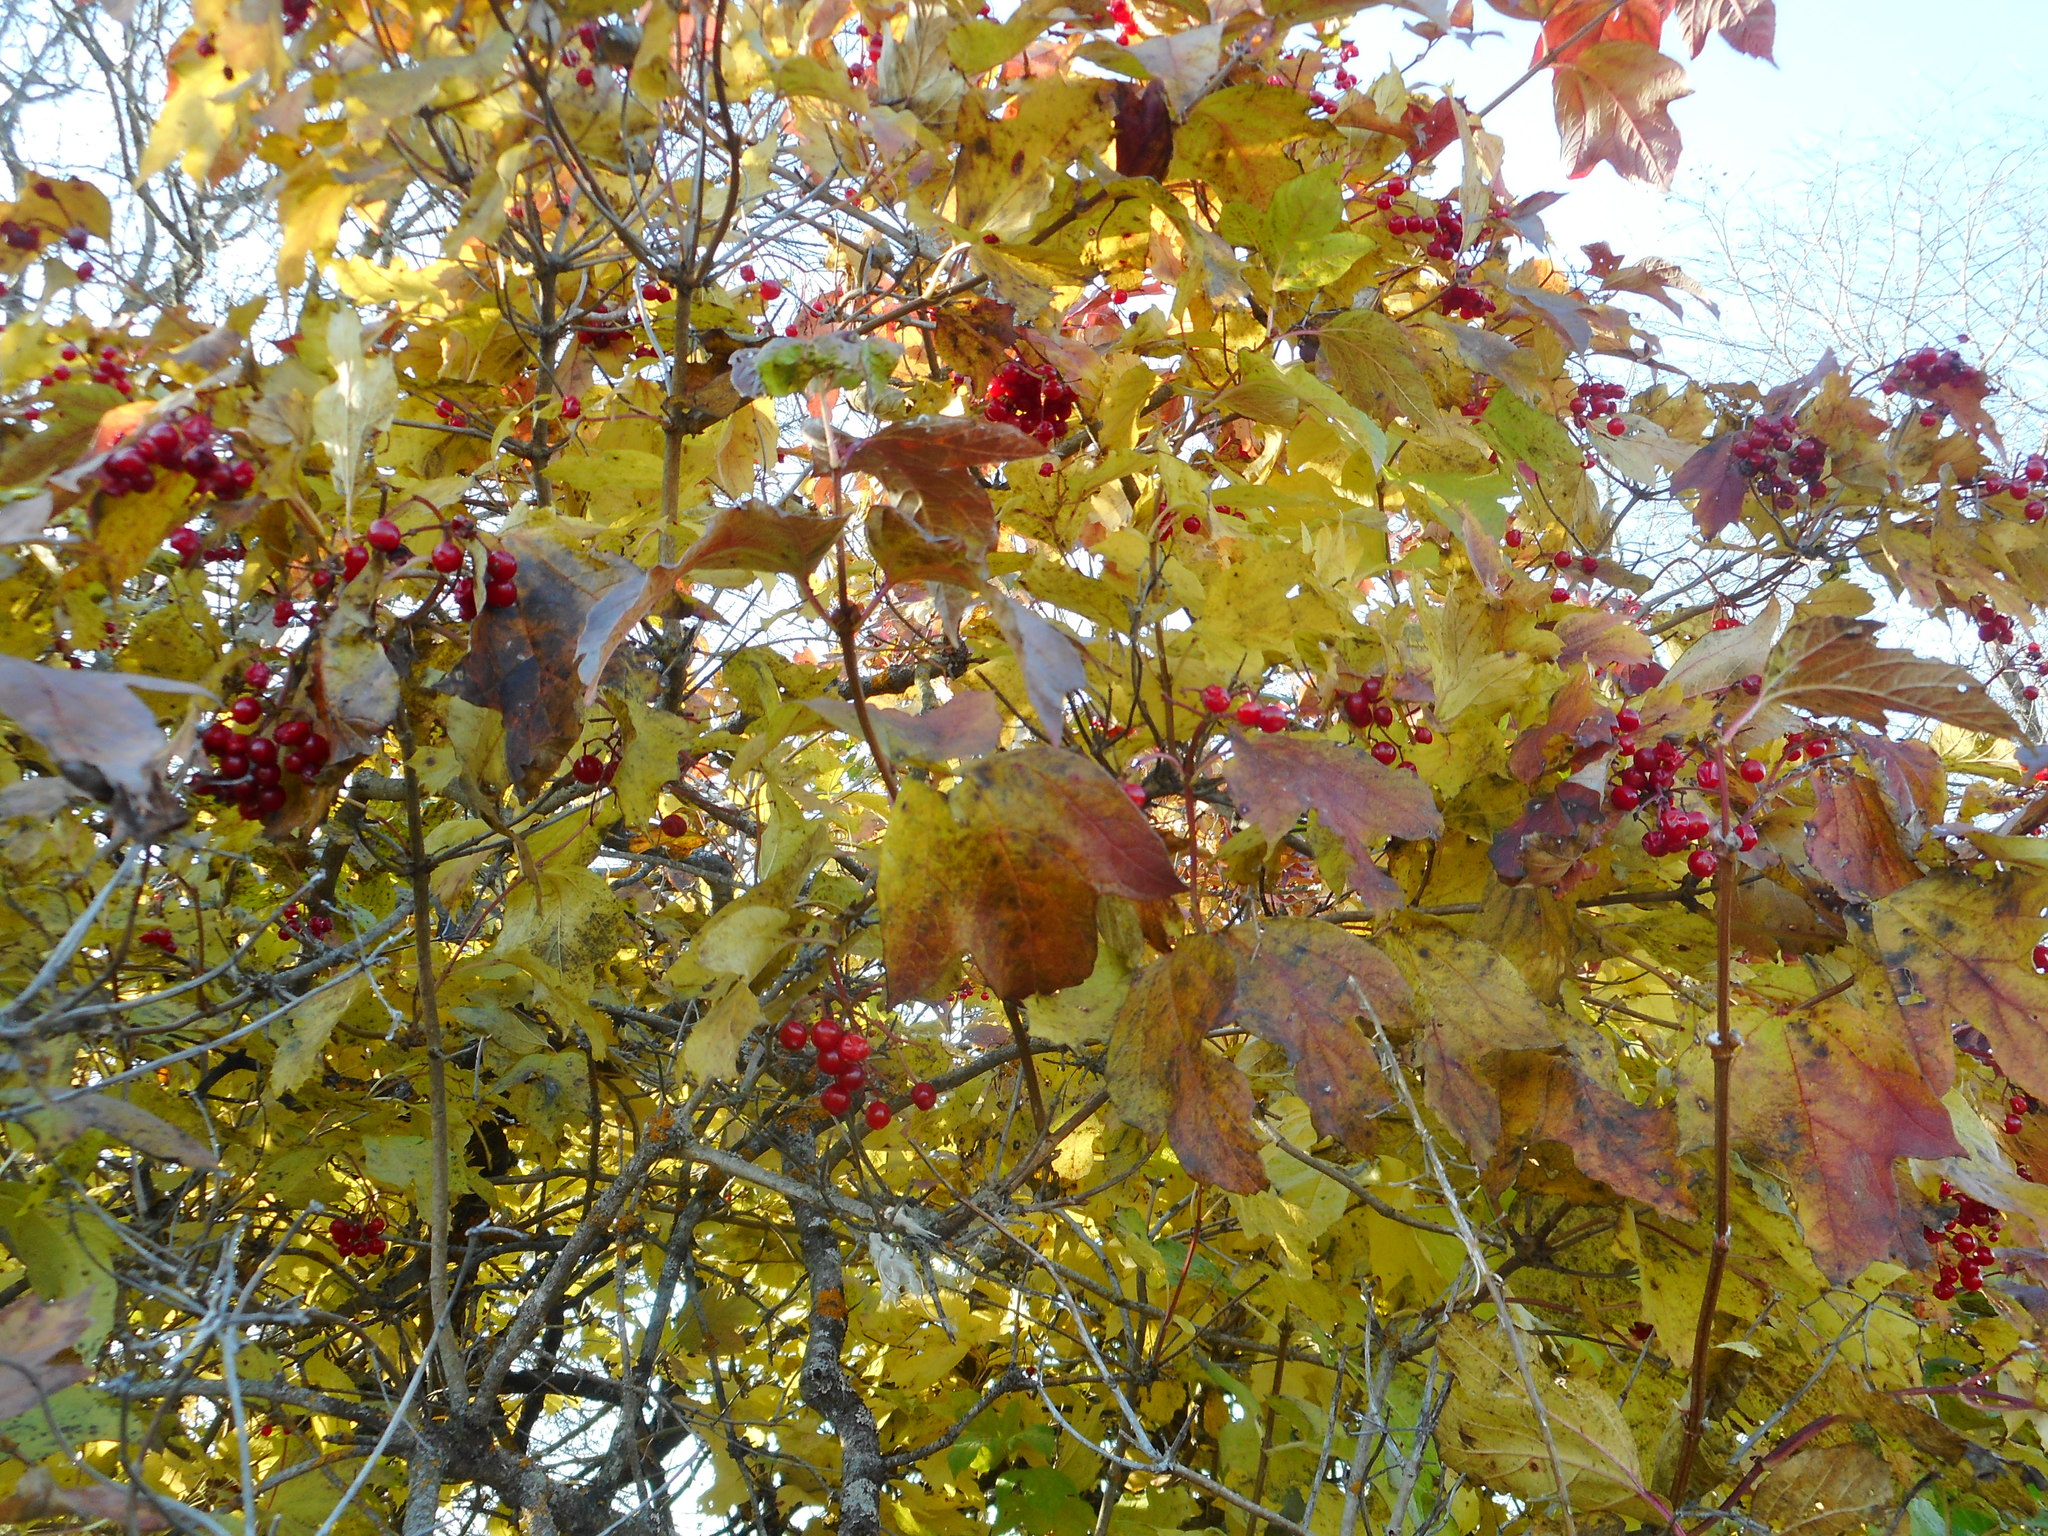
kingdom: Plantae
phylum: Tracheophyta
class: Magnoliopsida
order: Dipsacales
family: Viburnaceae
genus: Viburnum
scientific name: Viburnum opulus
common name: Guelder-rose
